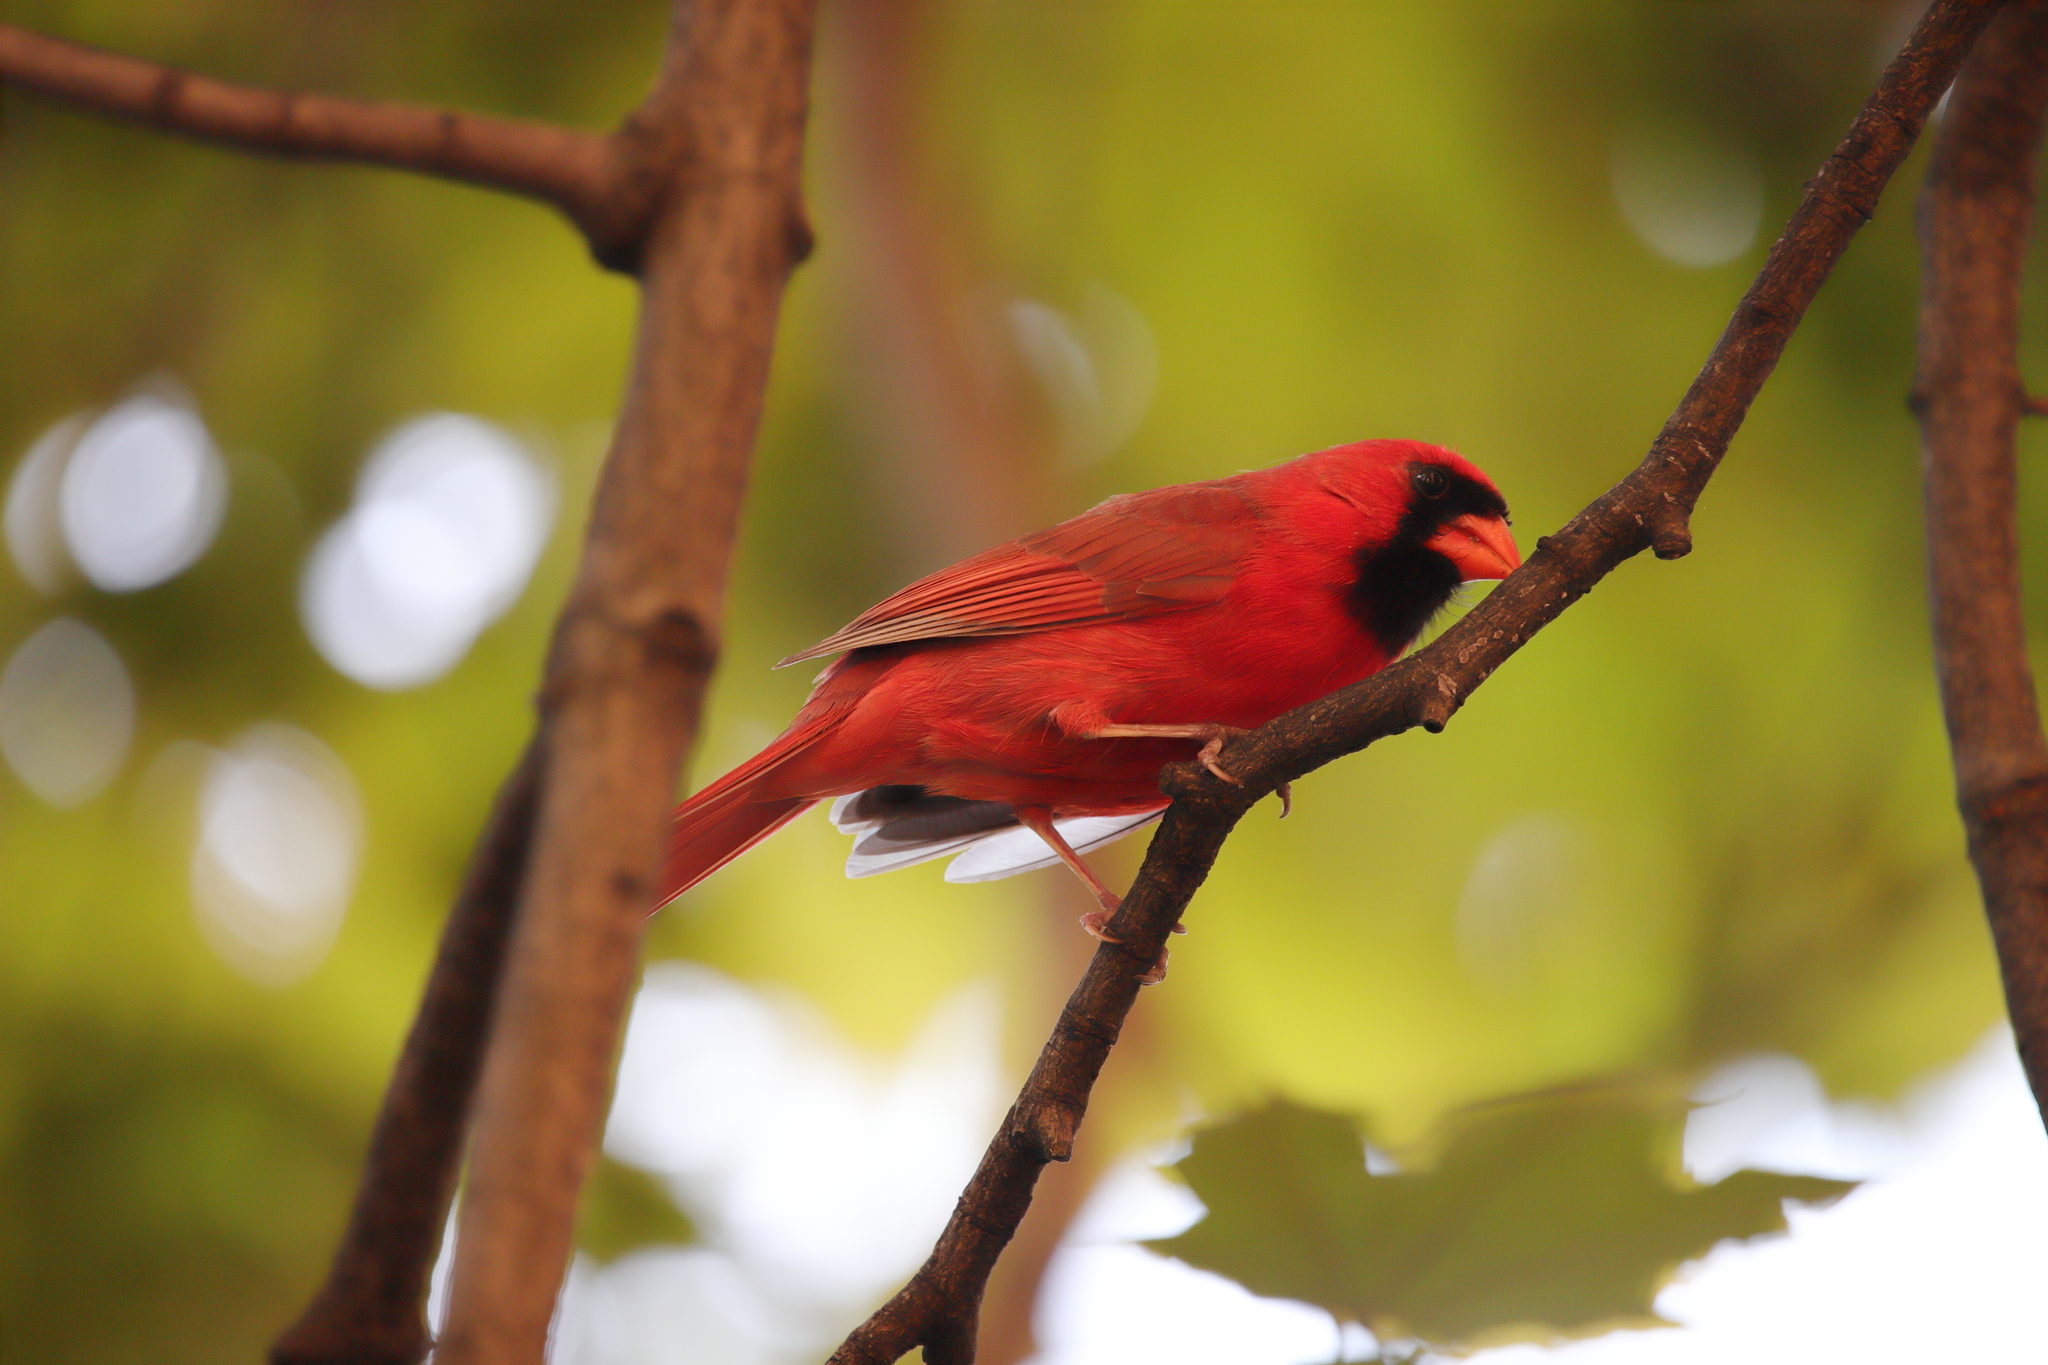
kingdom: Animalia
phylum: Chordata
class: Aves
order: Passeriformes
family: Cardinalidae
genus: Cardinalis
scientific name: Cardinalis cardinalis
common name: Northern cardinal
